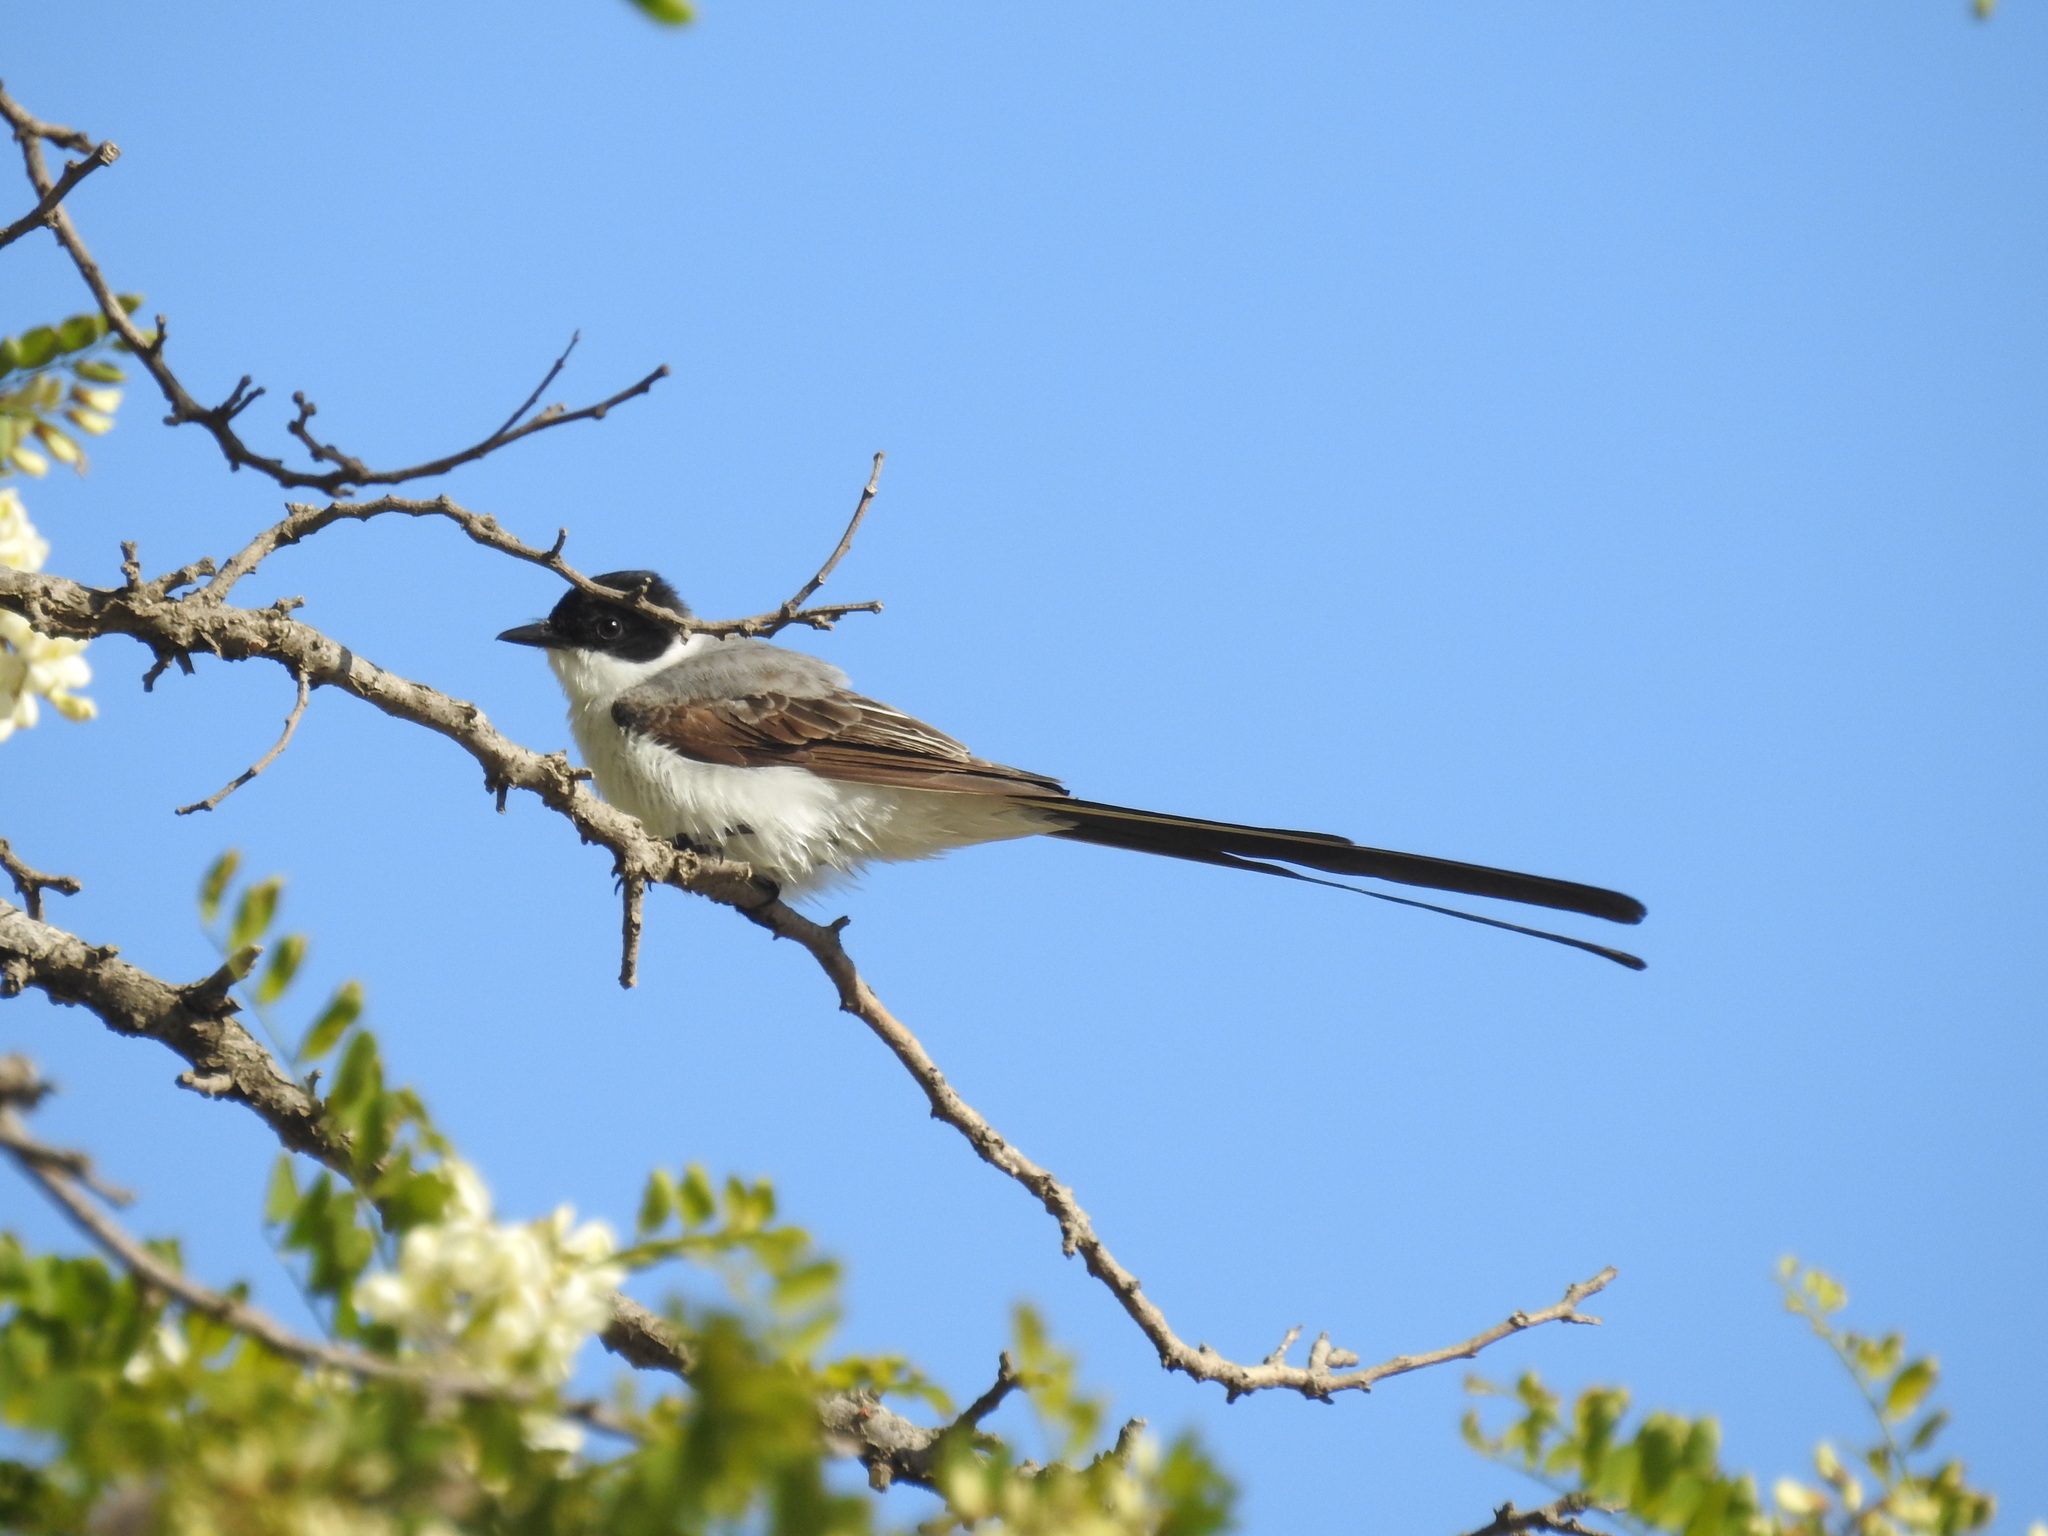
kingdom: Animalia
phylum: Chordata
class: Aves
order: Passeriformes
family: Tyrannidae
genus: Tyrannus
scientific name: Tyrannus savana
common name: Fork-tailed flycatcher
